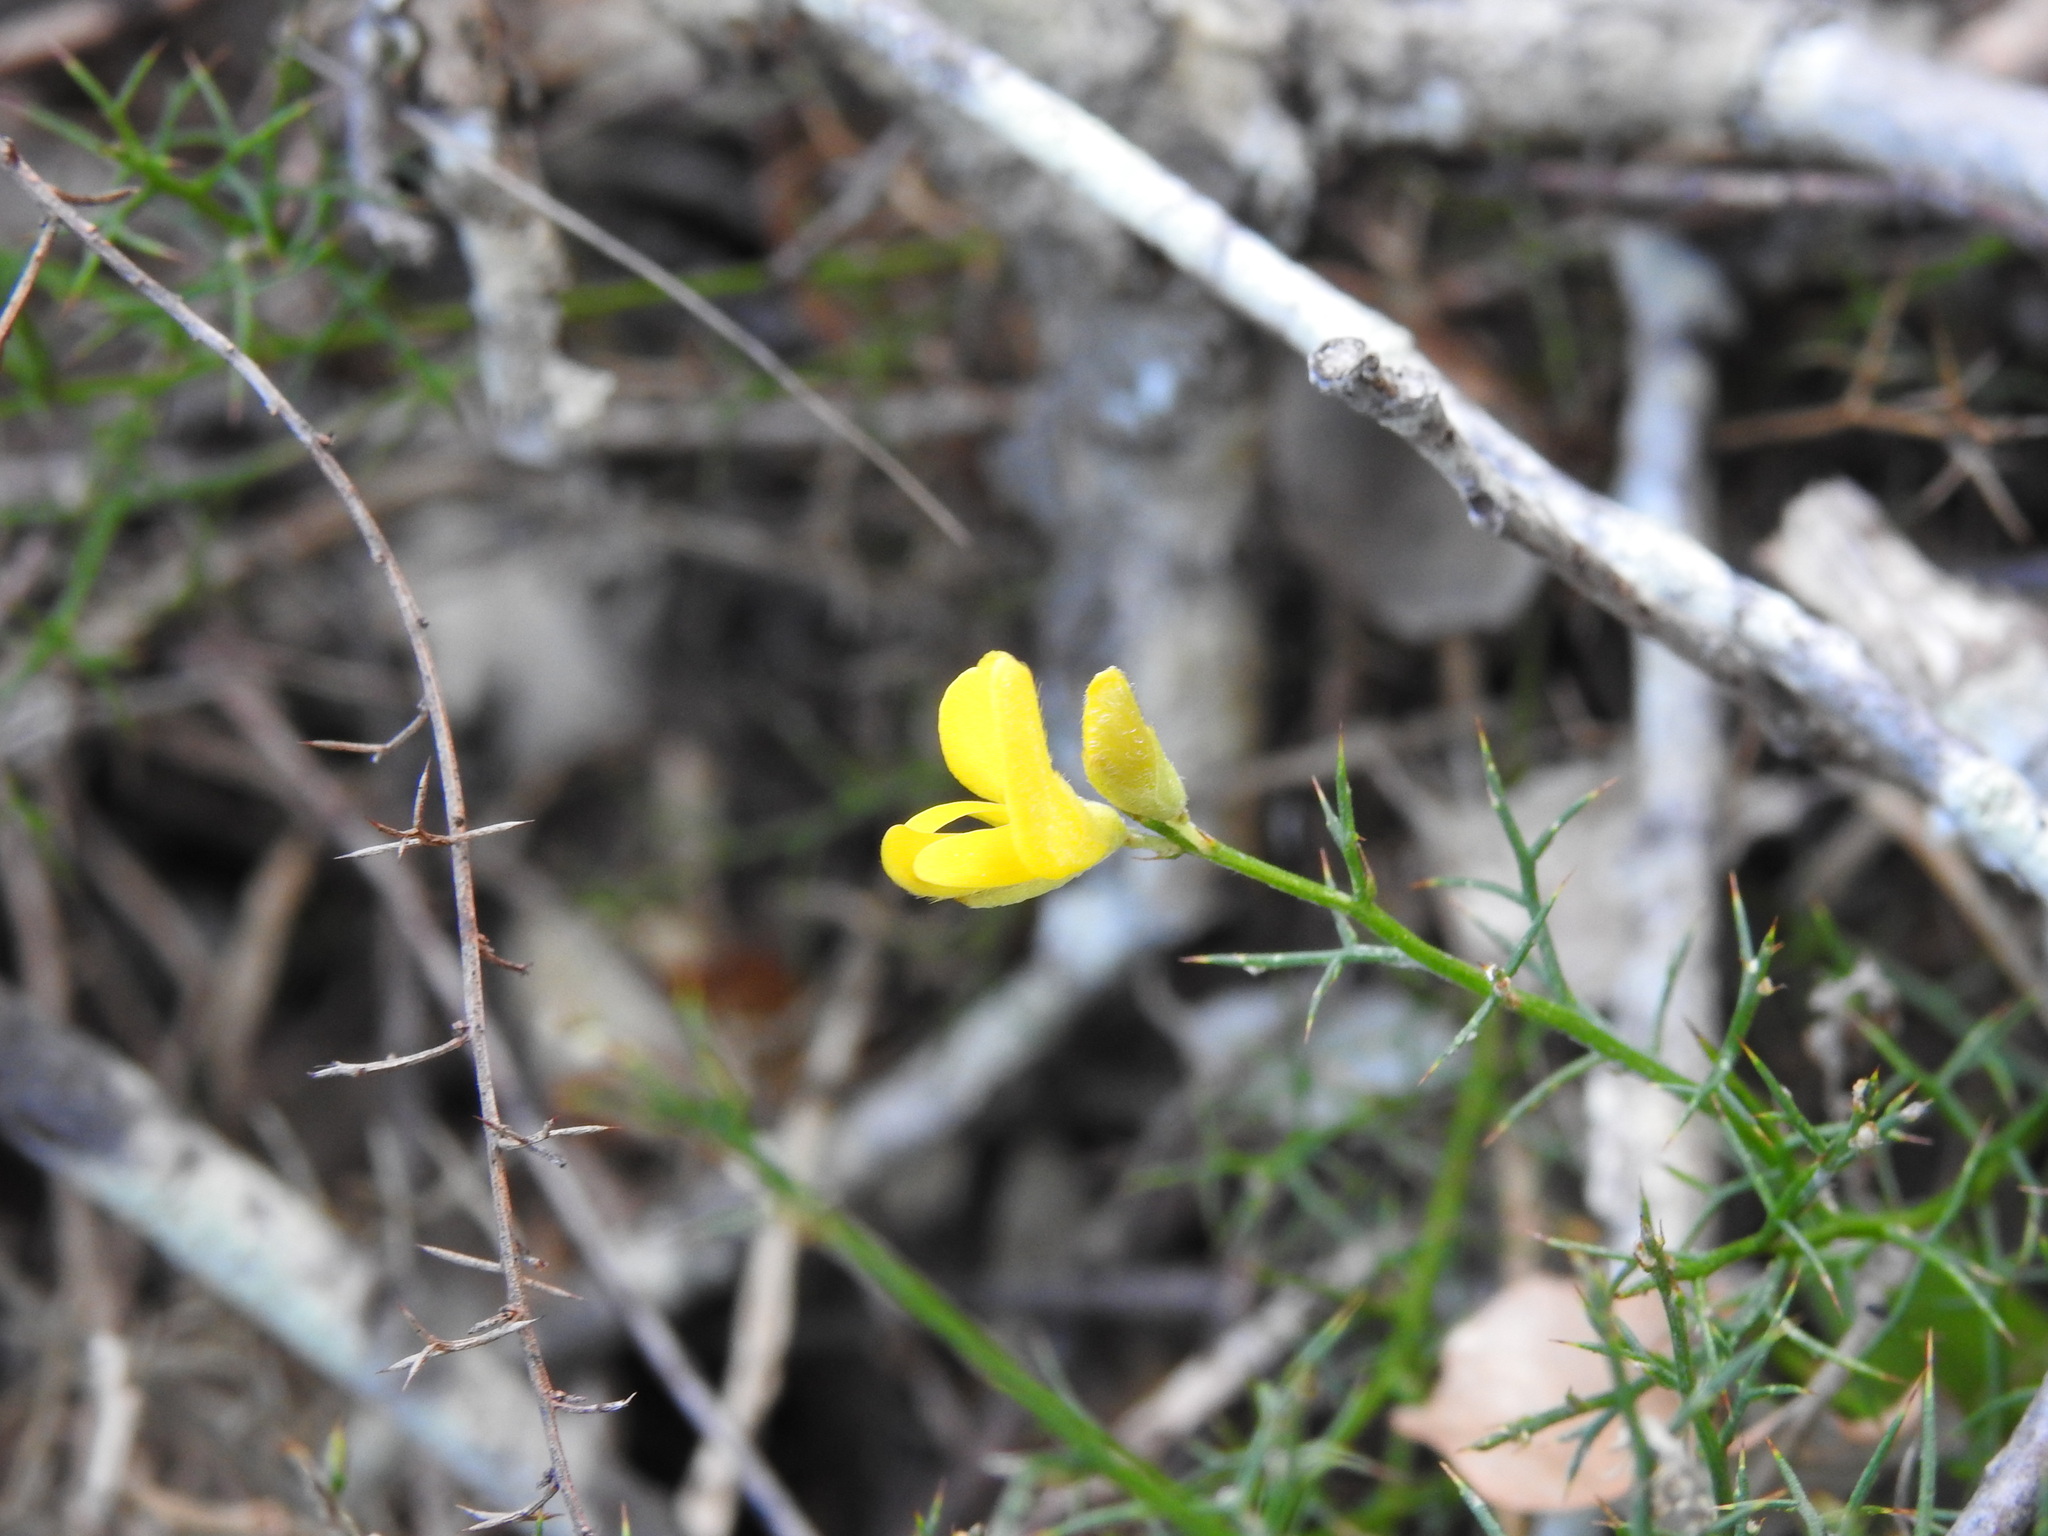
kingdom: Plantae
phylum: Tracheophyta
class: Magnoliopsida
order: Fabales
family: Fabaceae
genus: Stauracanthus
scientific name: Stauracanthus boivinii
